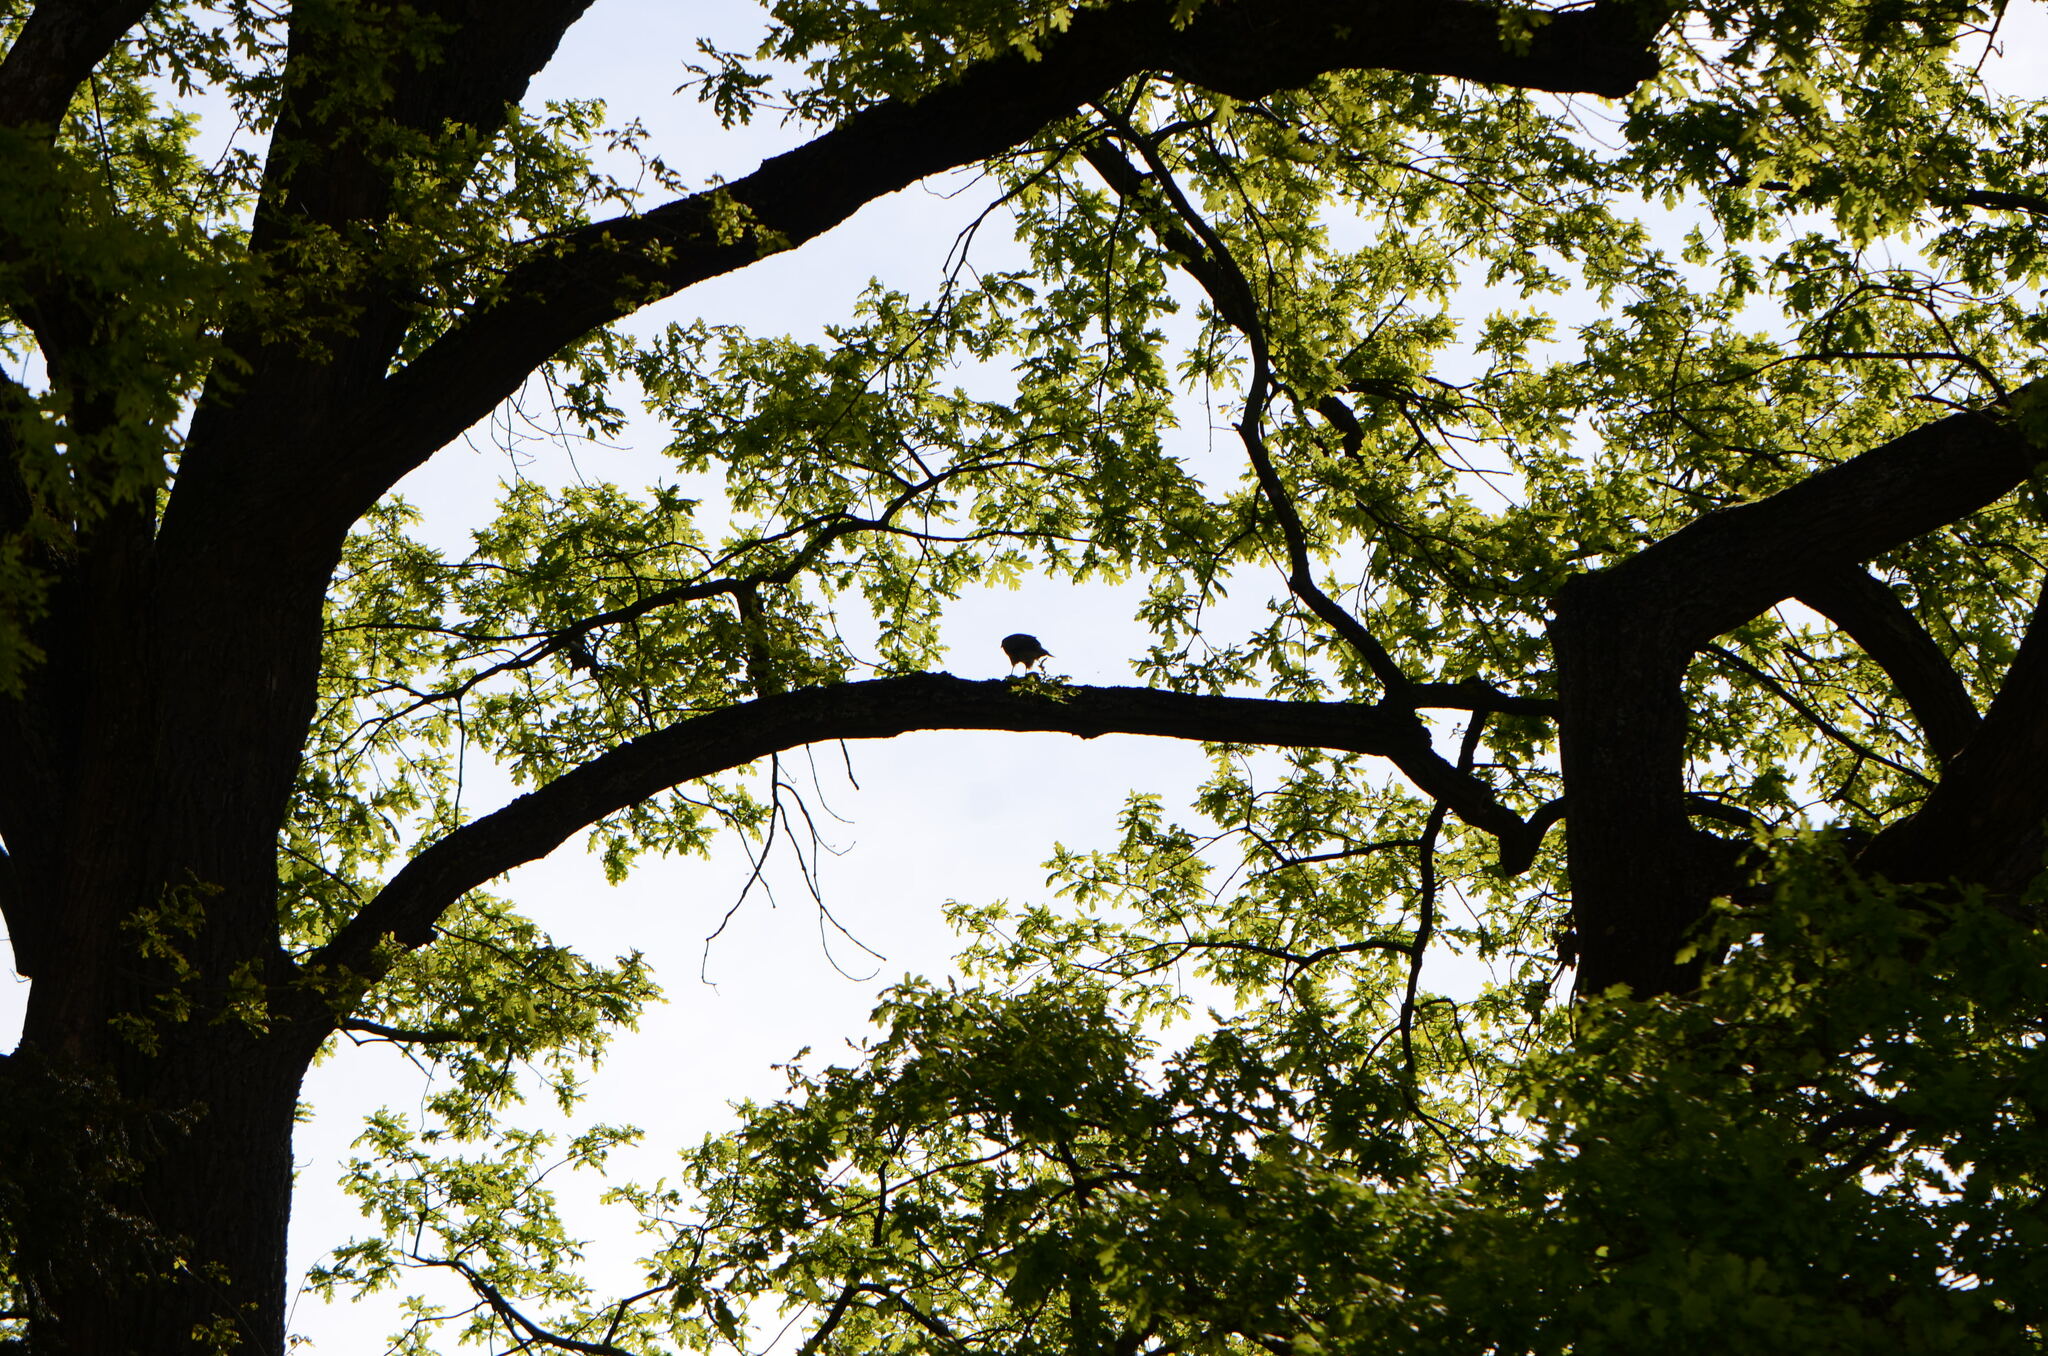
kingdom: Animalia
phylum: Chordata
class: Aves
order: Accipitriformes
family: Accipitridae
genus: Accipiter
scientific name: Accipiter nisus
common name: Eurasian sparrowhawk
